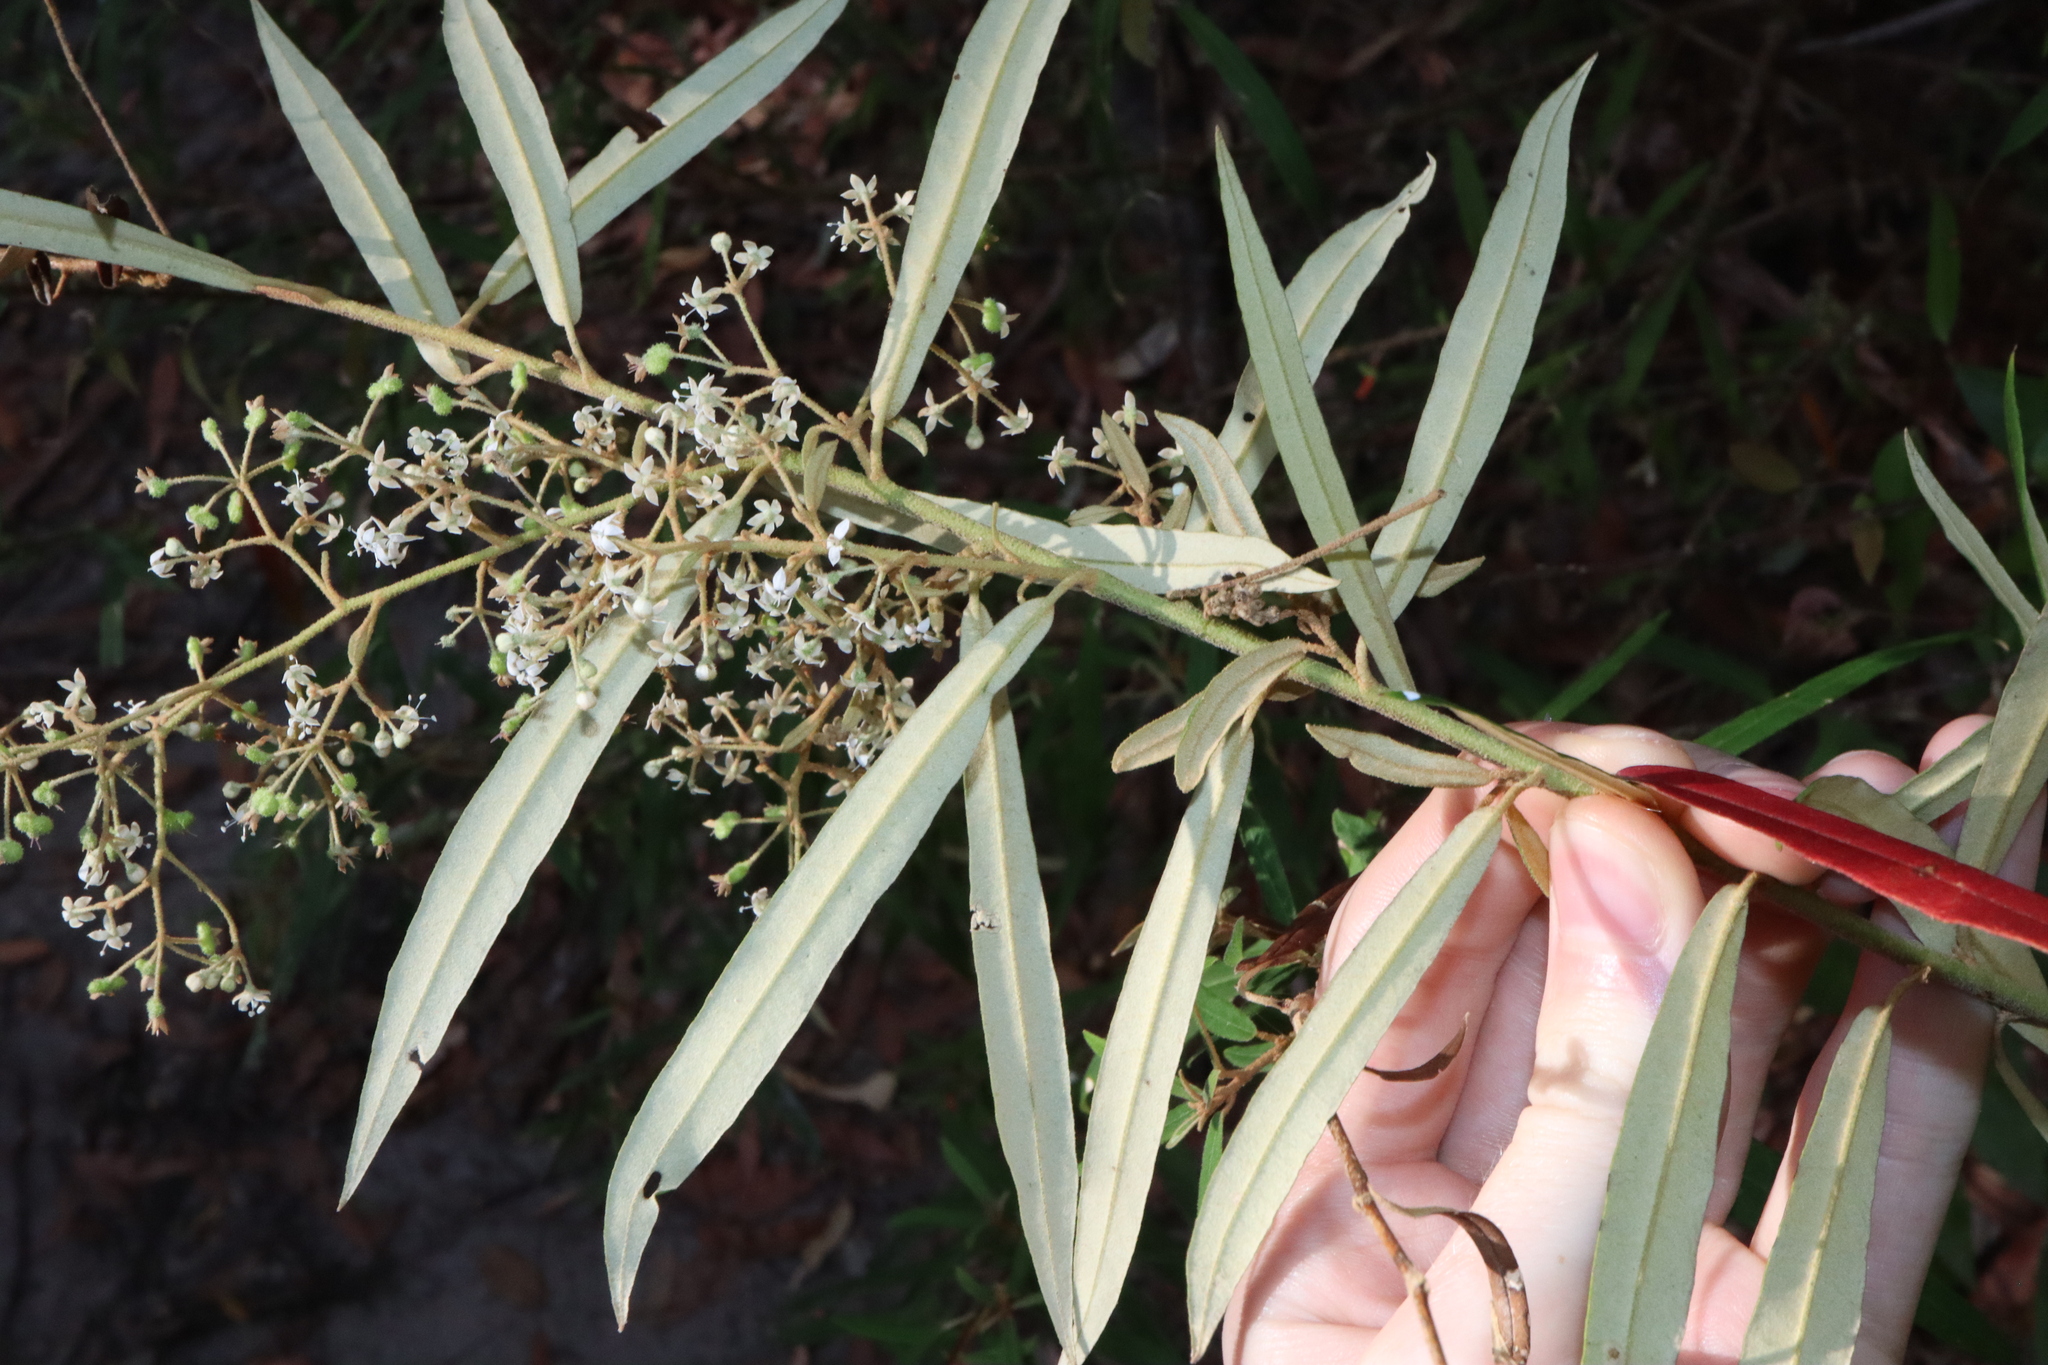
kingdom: Plantae
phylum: Tracheophyta
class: Magnoliopsida
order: Apiales
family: Araliaceae
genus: Astrotricha
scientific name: Astrotricha longifolia
